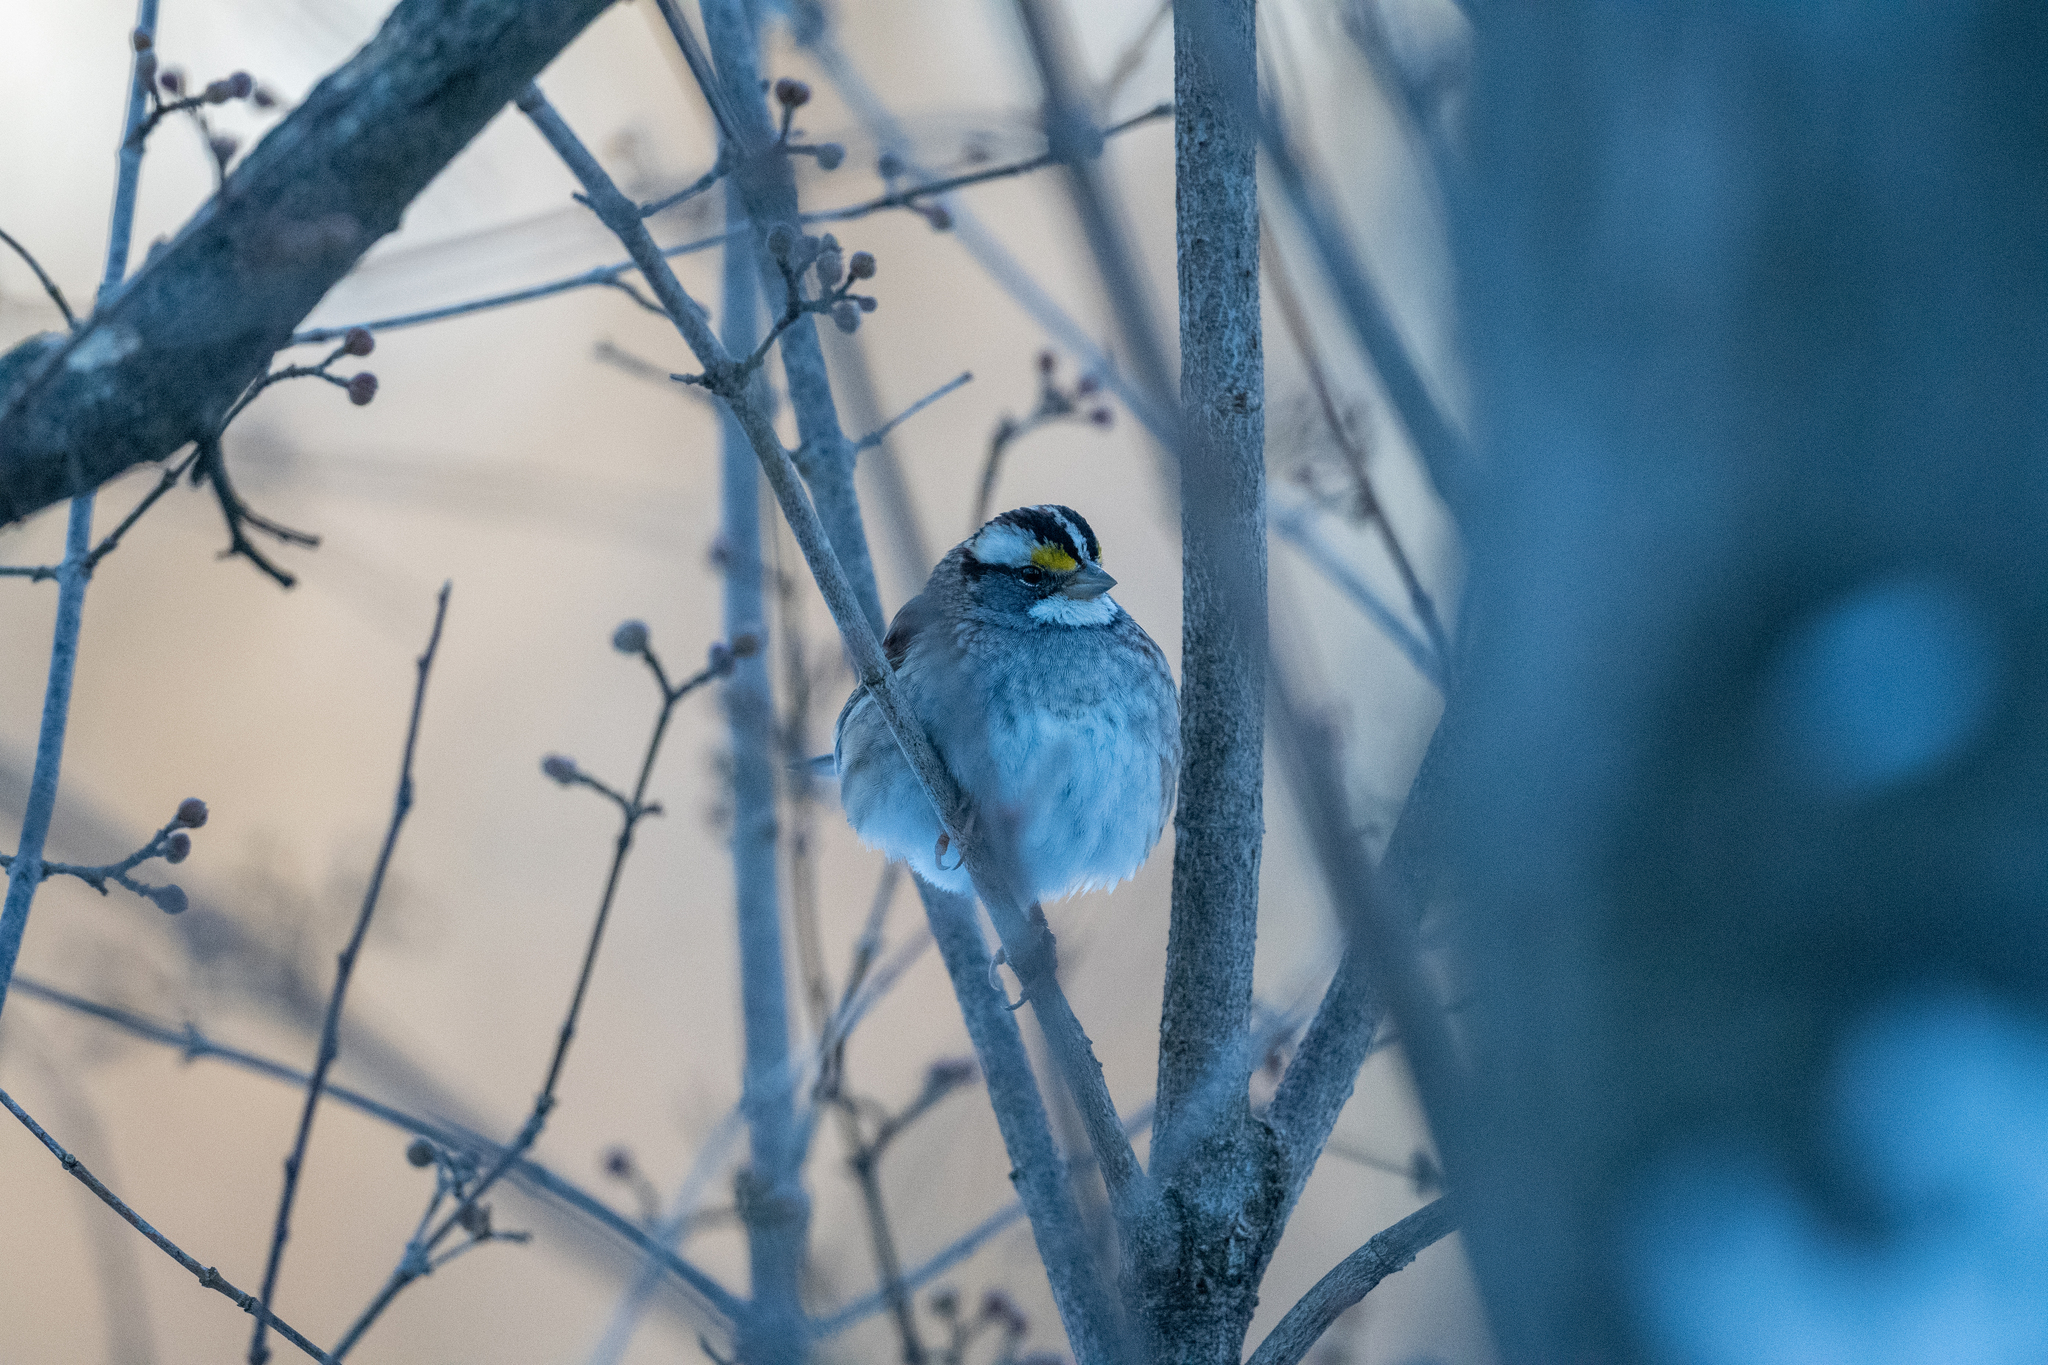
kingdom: Animalia
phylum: Chordata
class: Aves
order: Passeriformes
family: Passerellidae
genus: Zonotrichia
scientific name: Zonotrichia albicollis
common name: White-throated sparrow
